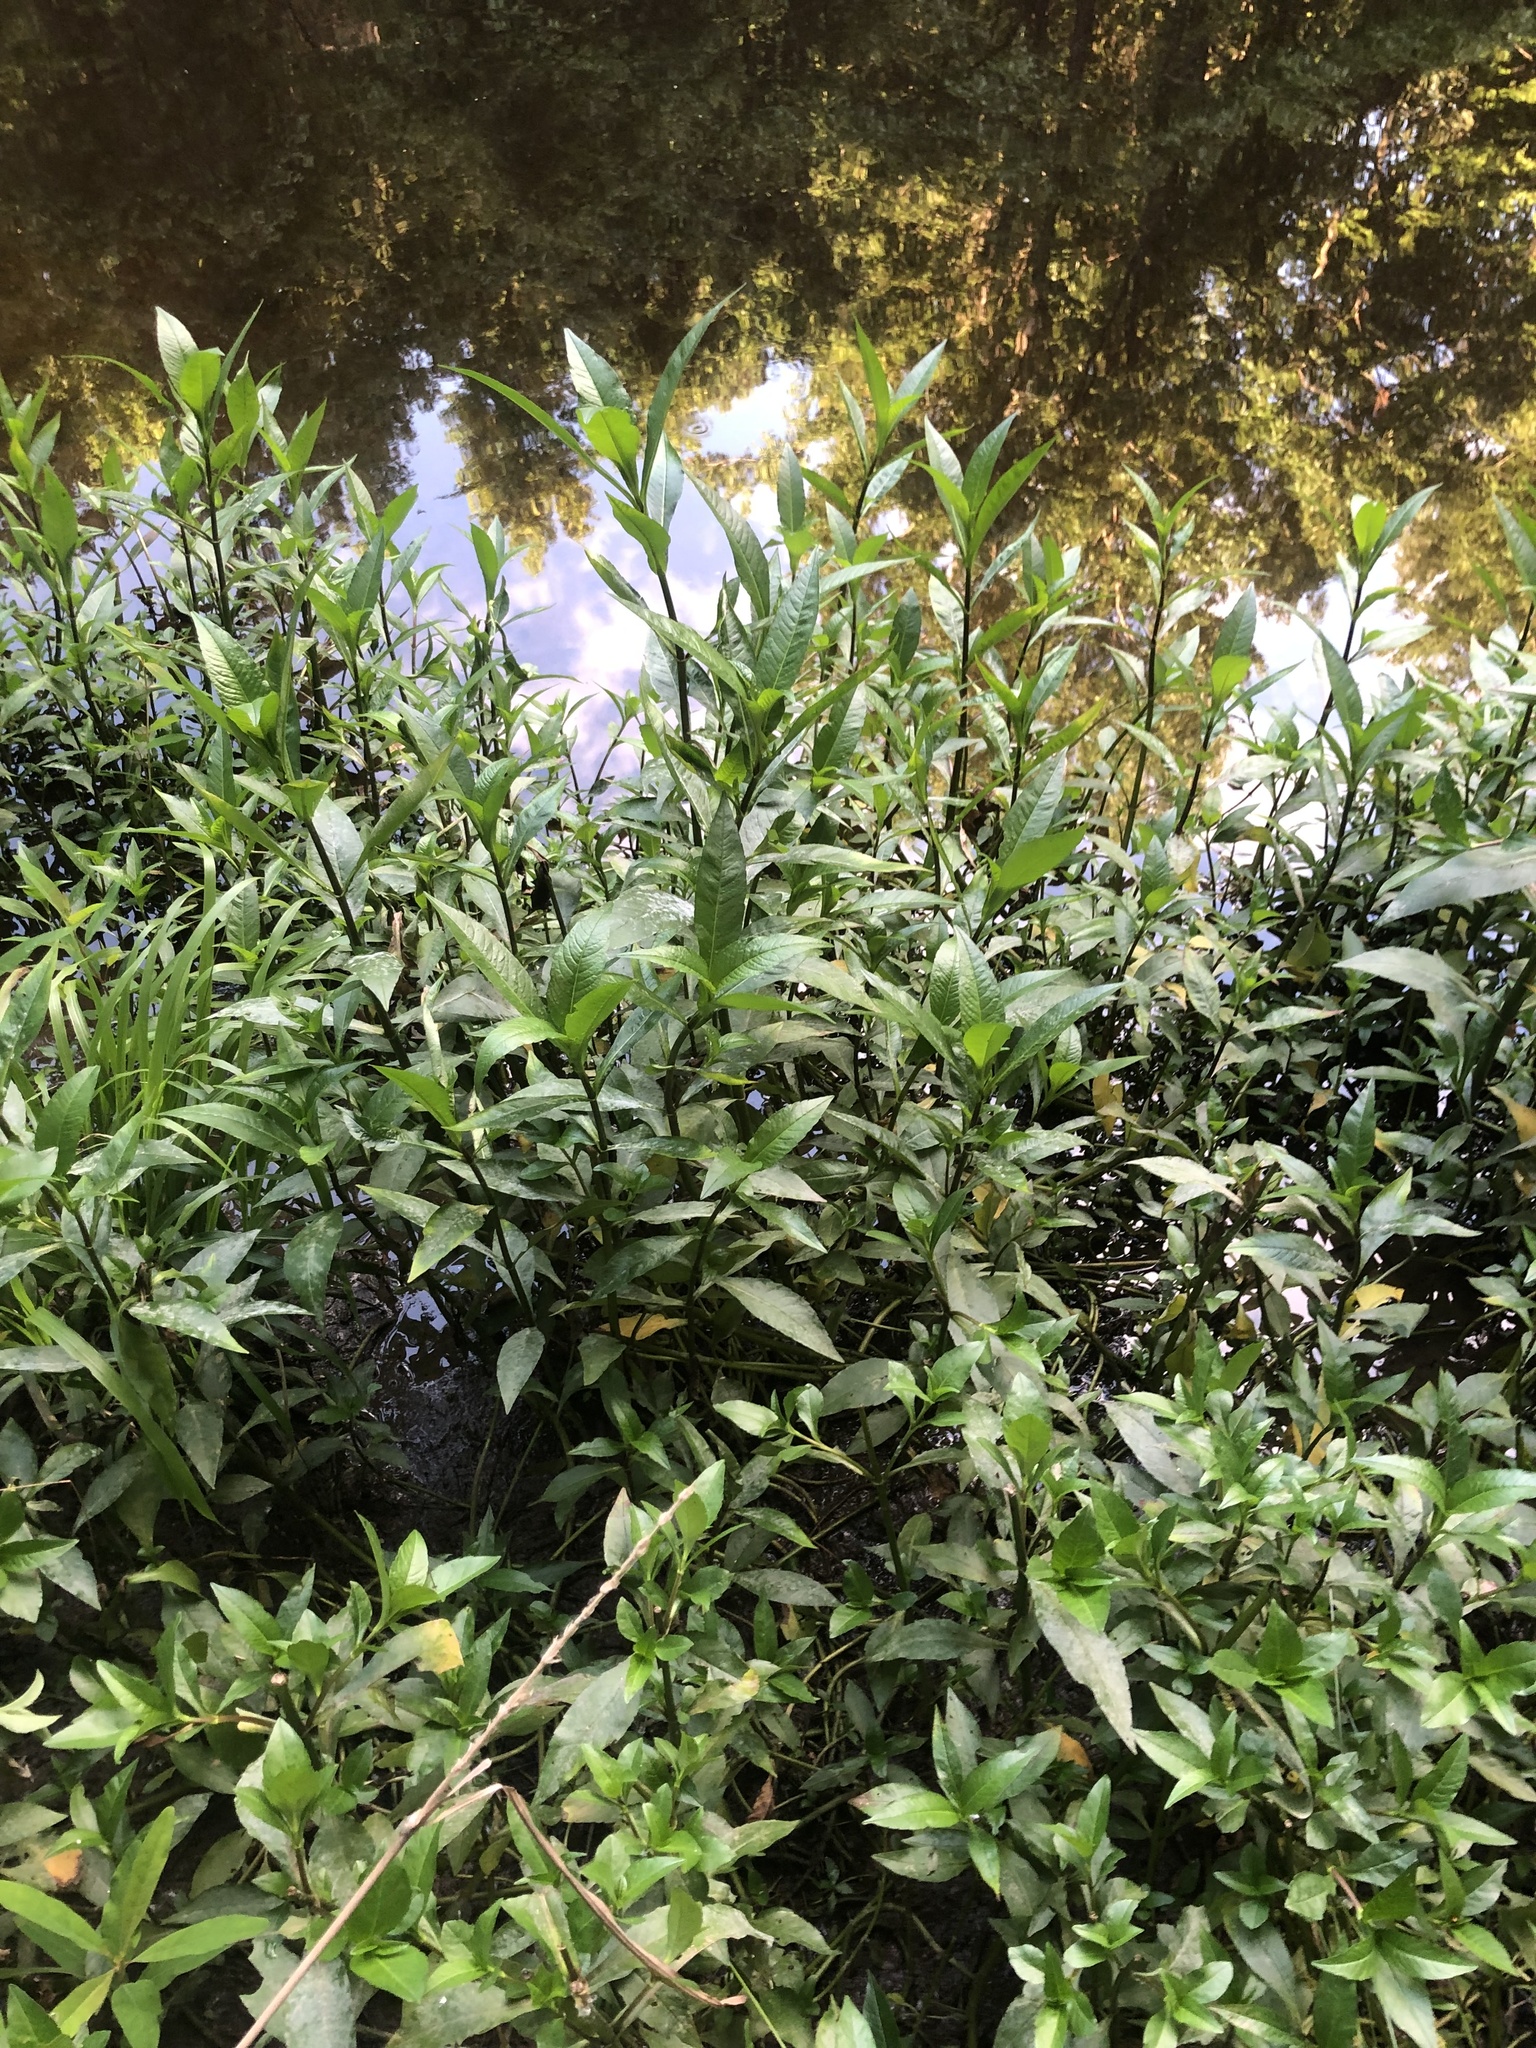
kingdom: Plantae
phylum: Tracheophyta
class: Magnoliopsida
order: Solanales
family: Hydroleaceae
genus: Hydrolea
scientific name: Hydrolea uniflora
